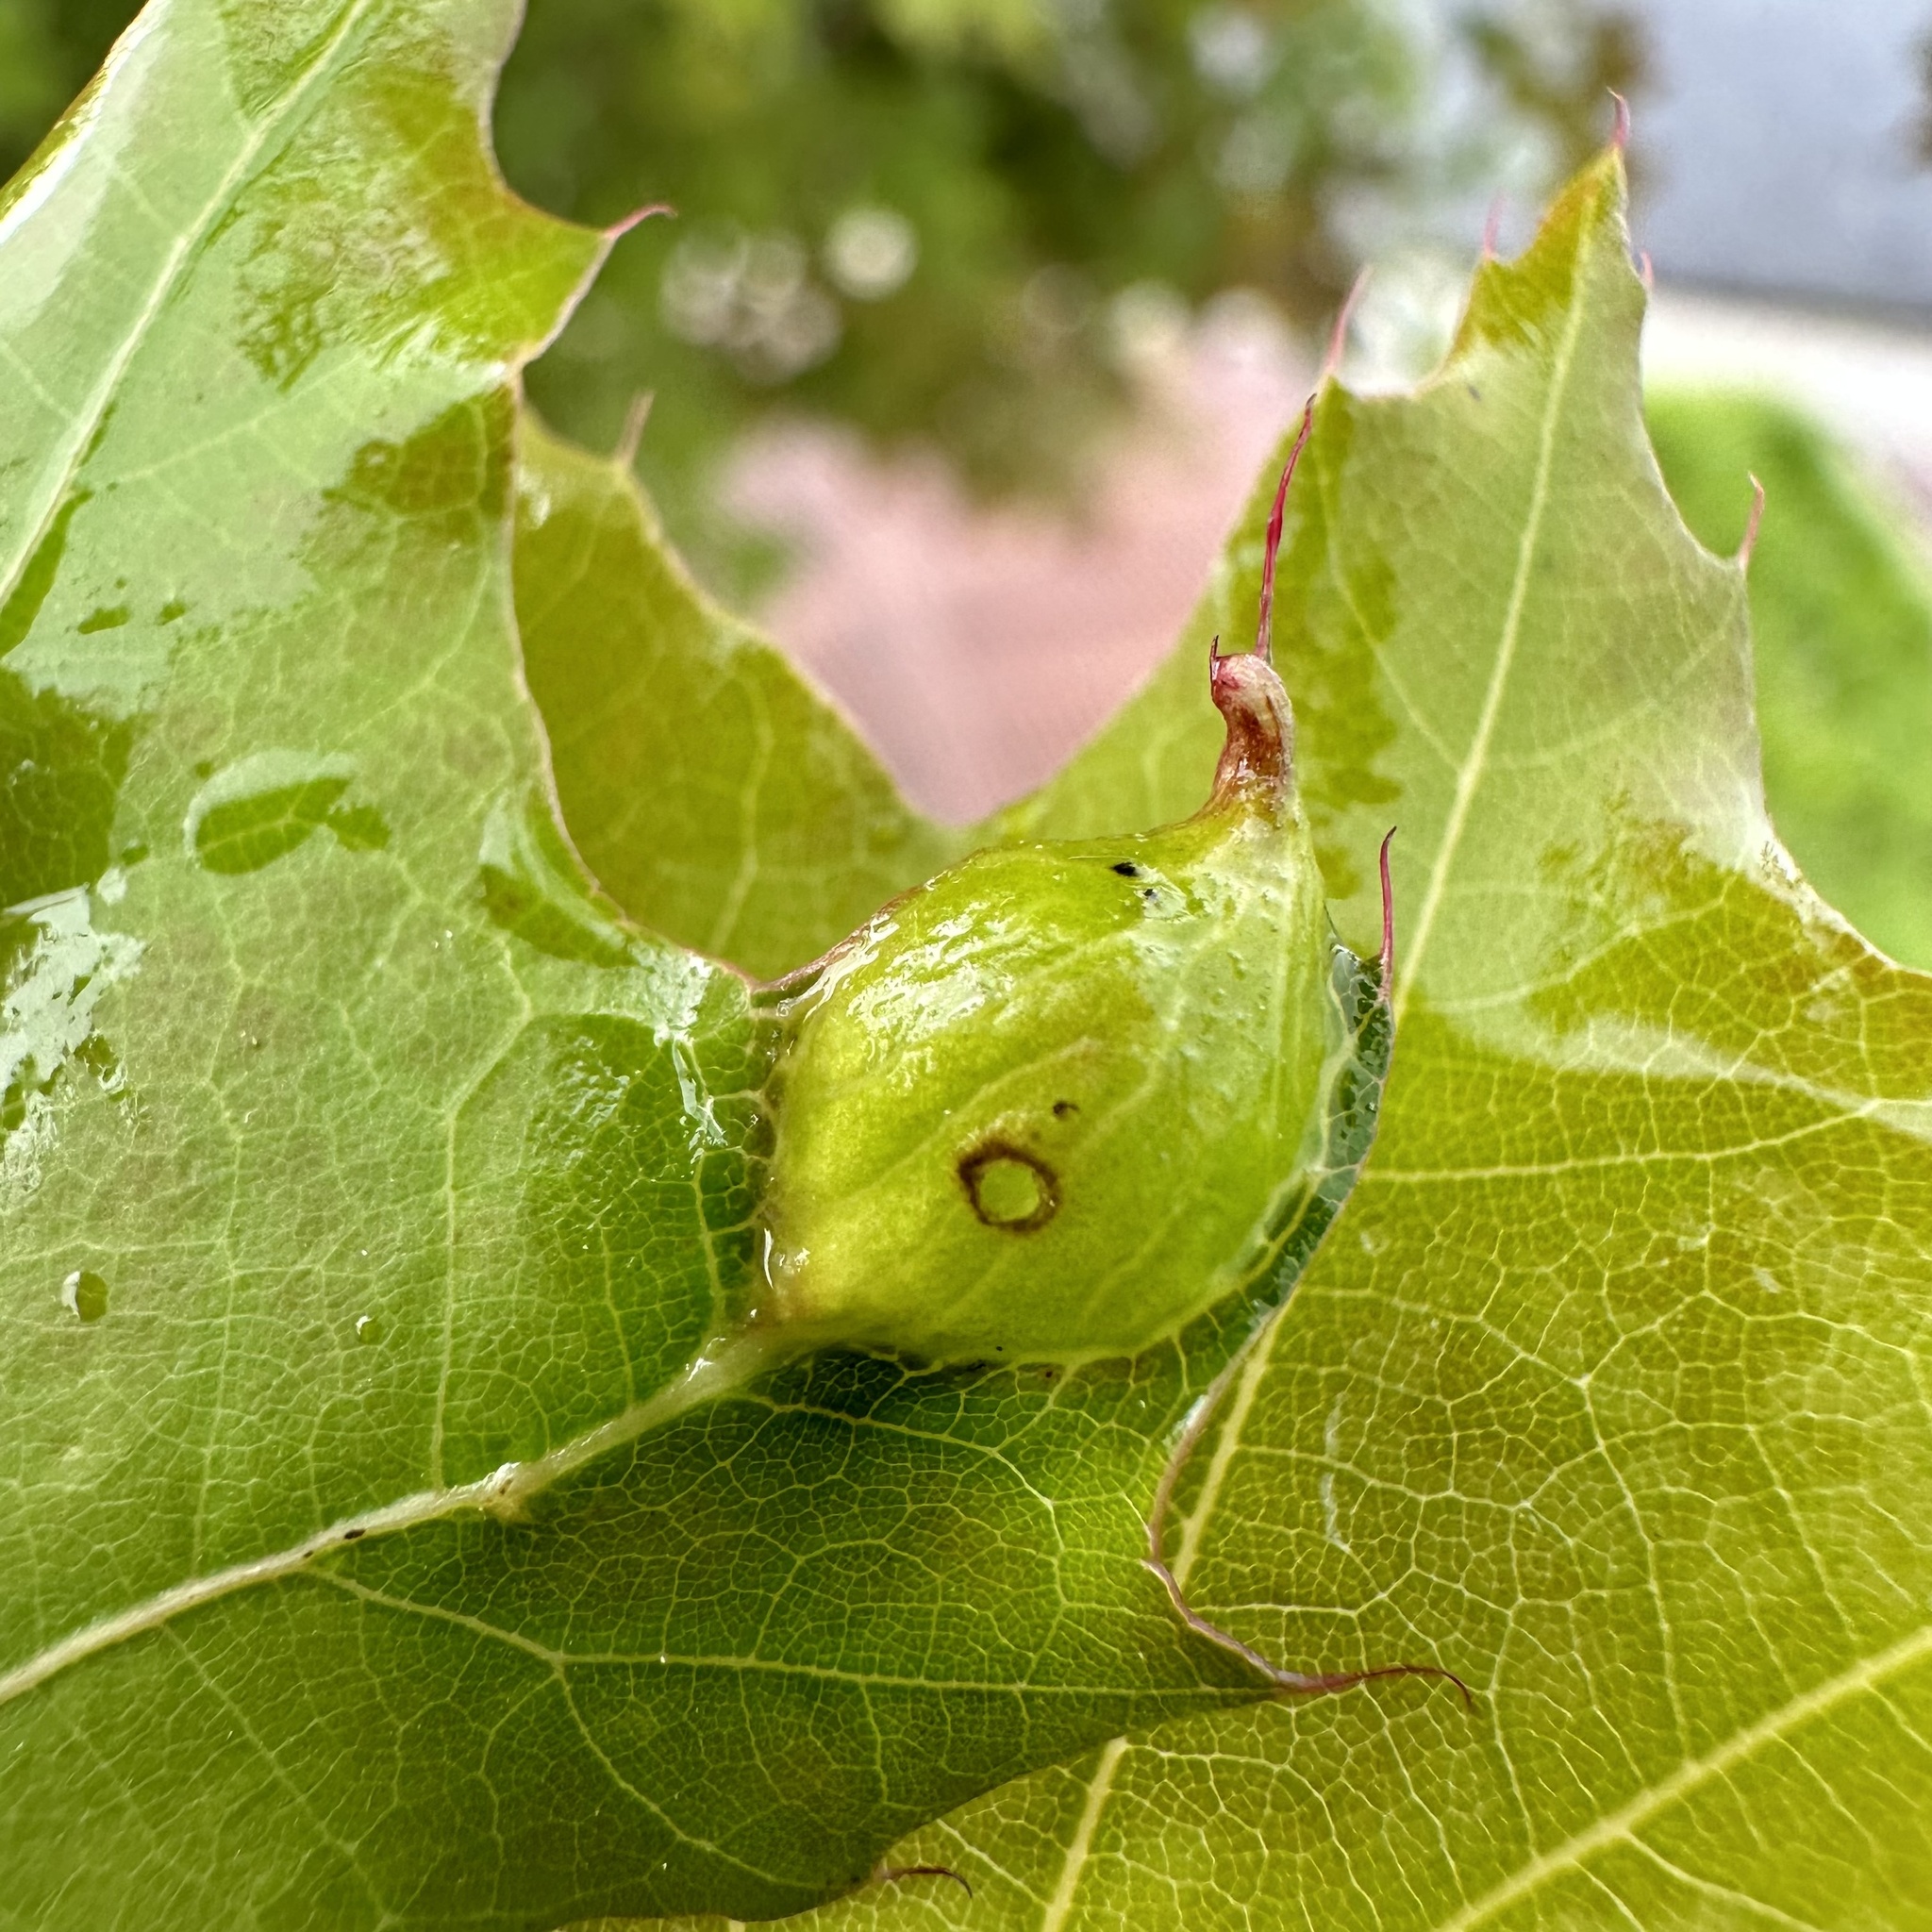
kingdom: Animalia
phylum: Arthropoda
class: Insecta
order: Hymenoptera
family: Cynipidae
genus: Dryocosmus
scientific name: Dryocosmus
